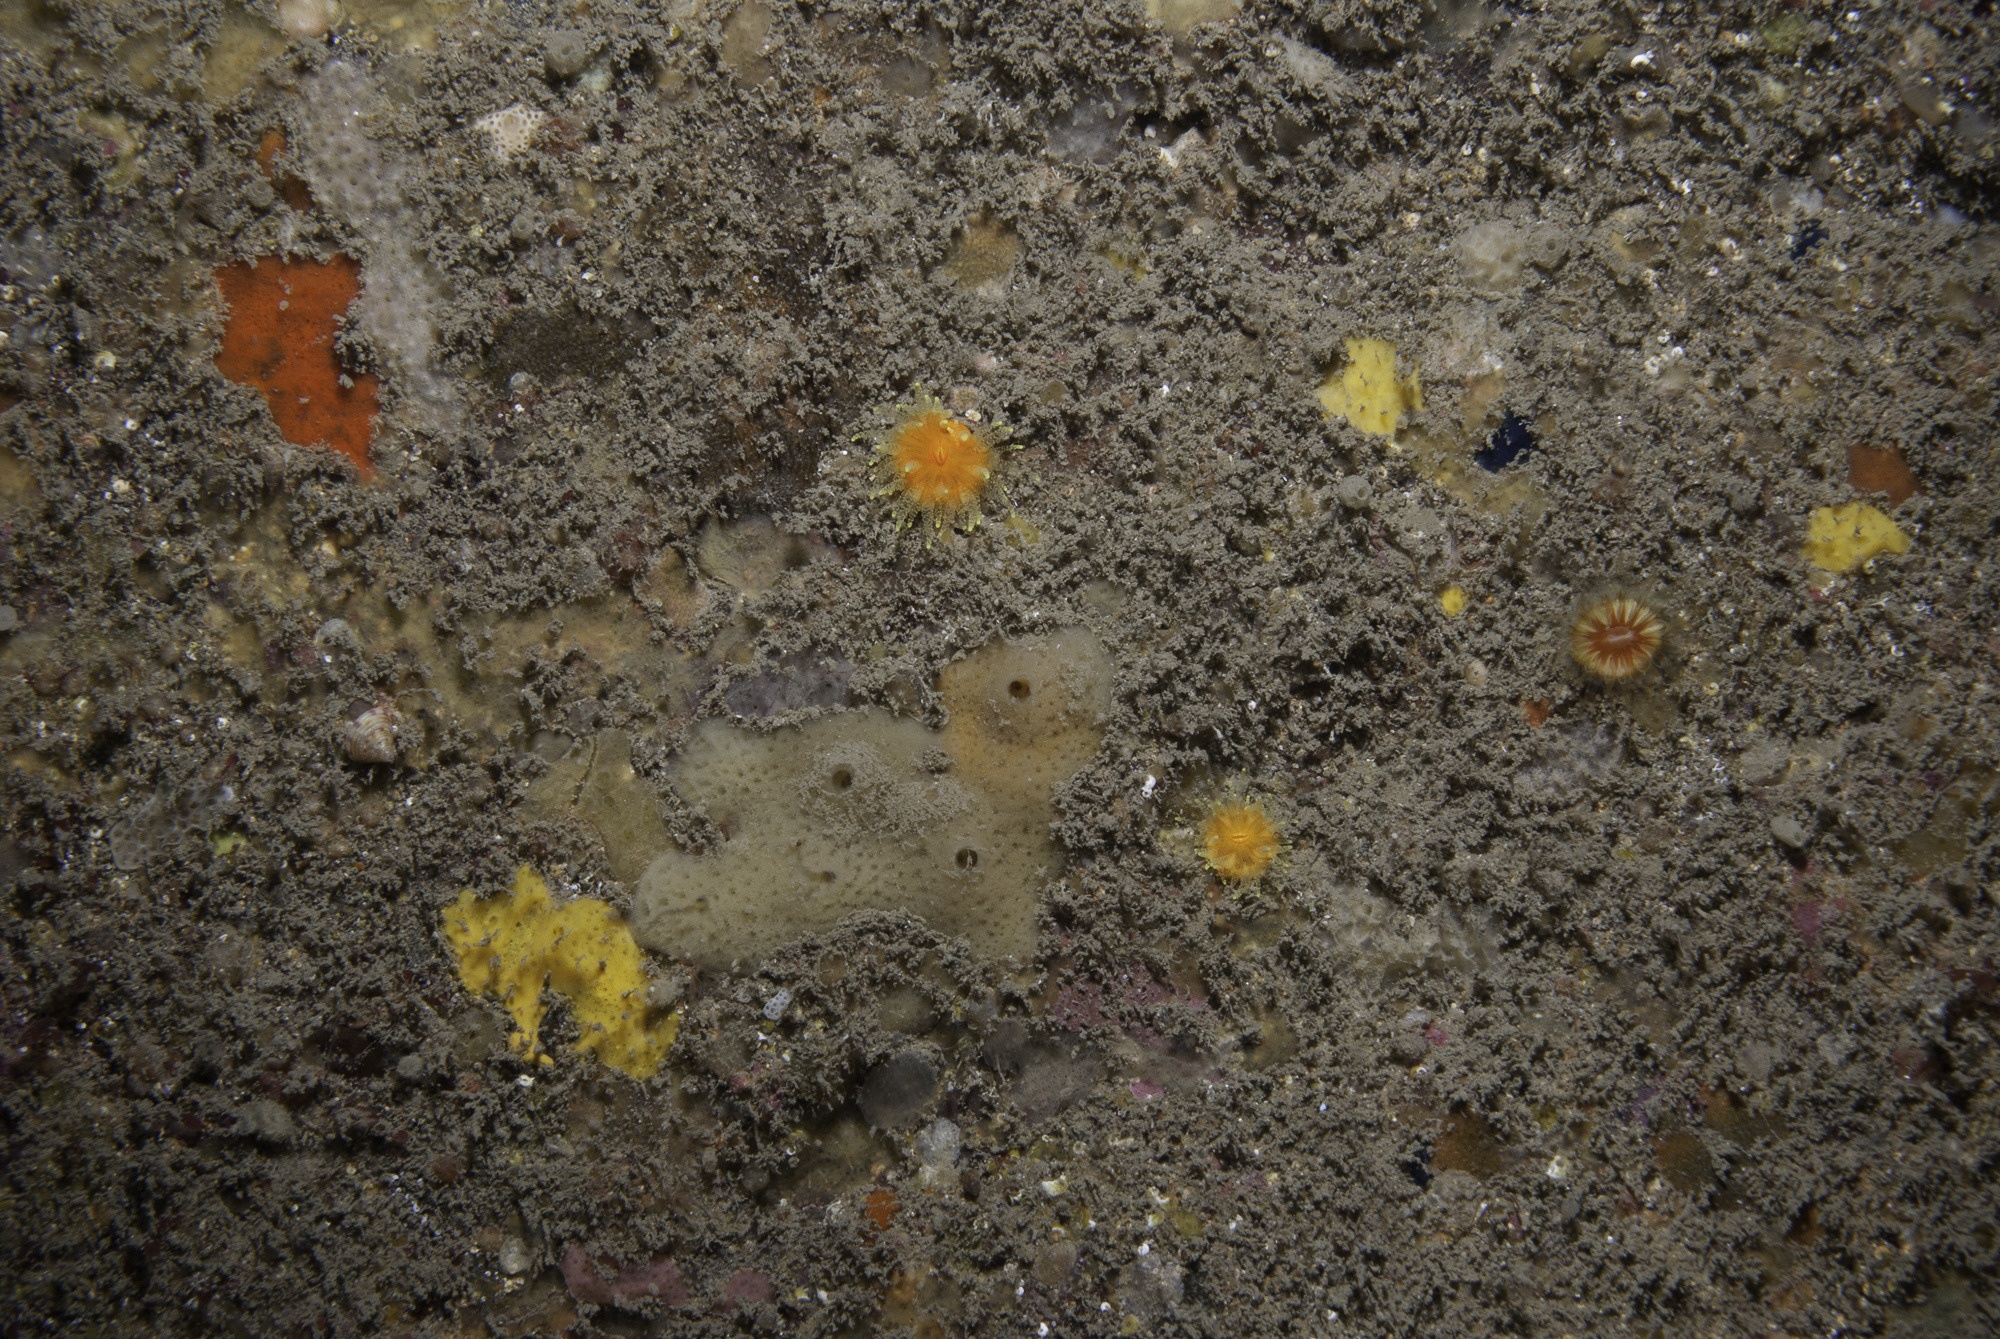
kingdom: Animalia
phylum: Cnidaria
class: Anthozoa
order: Scleractinia
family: Dendrophylliidae
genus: Balanophyllia
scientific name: Balanophyllia regia
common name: Golden star coral
